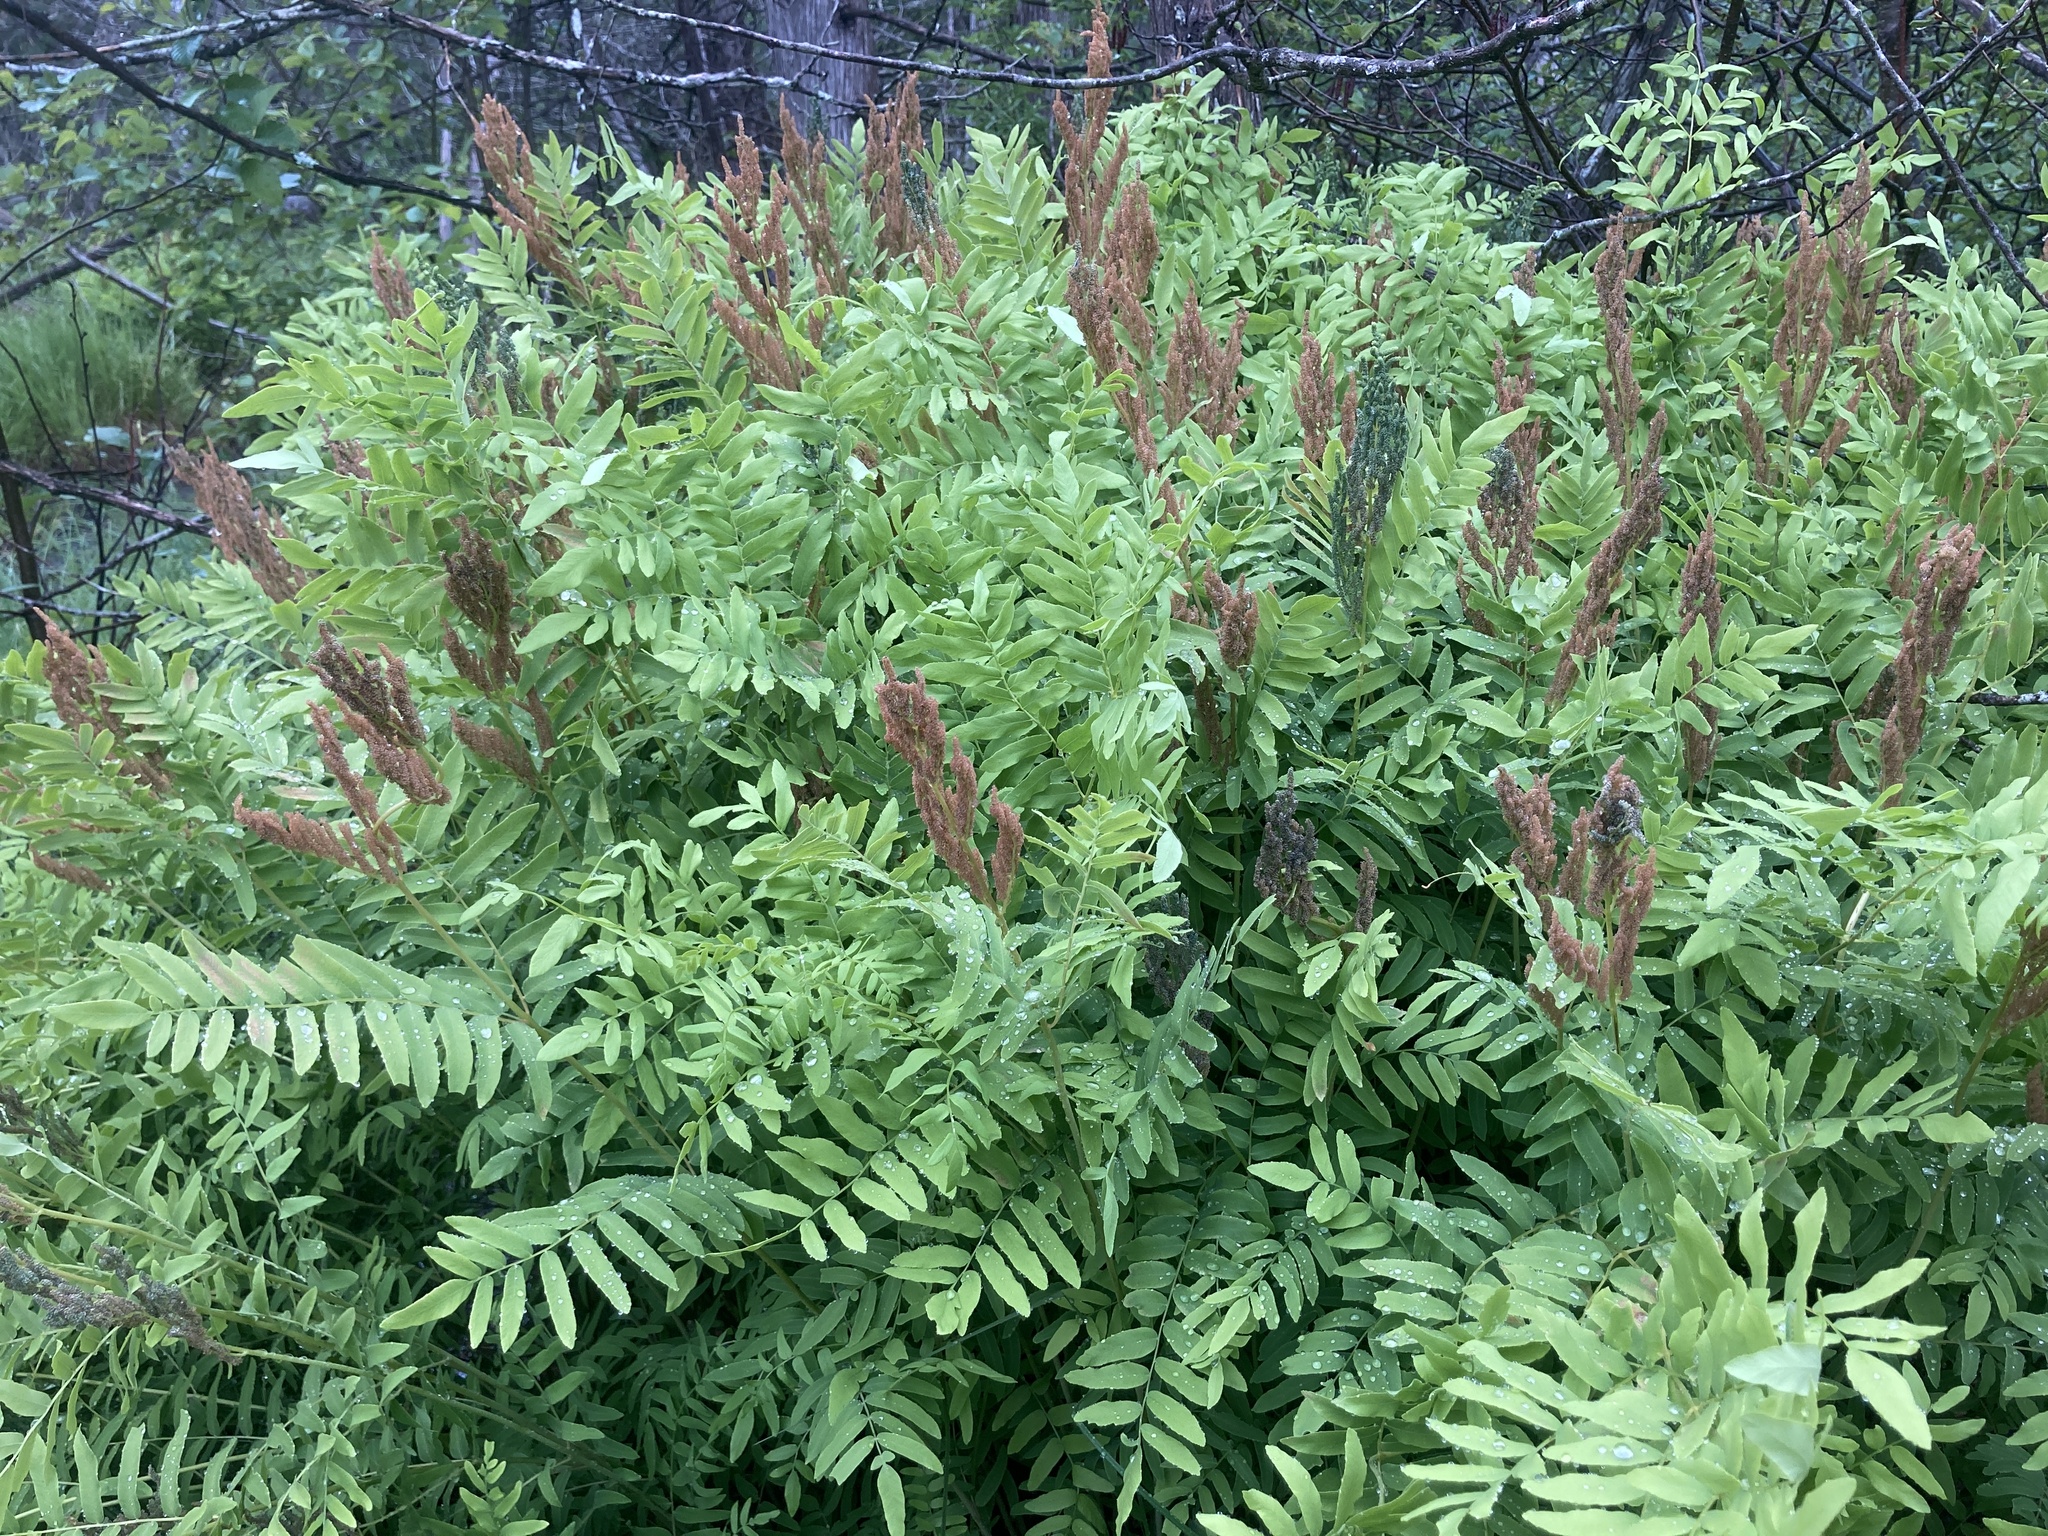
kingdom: Plantae
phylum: Tracheophyta
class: Polypodiopsida
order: Osmundales
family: Osmundaceae
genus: Osmunda
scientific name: Osmunda spectabilis
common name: American royal fern
